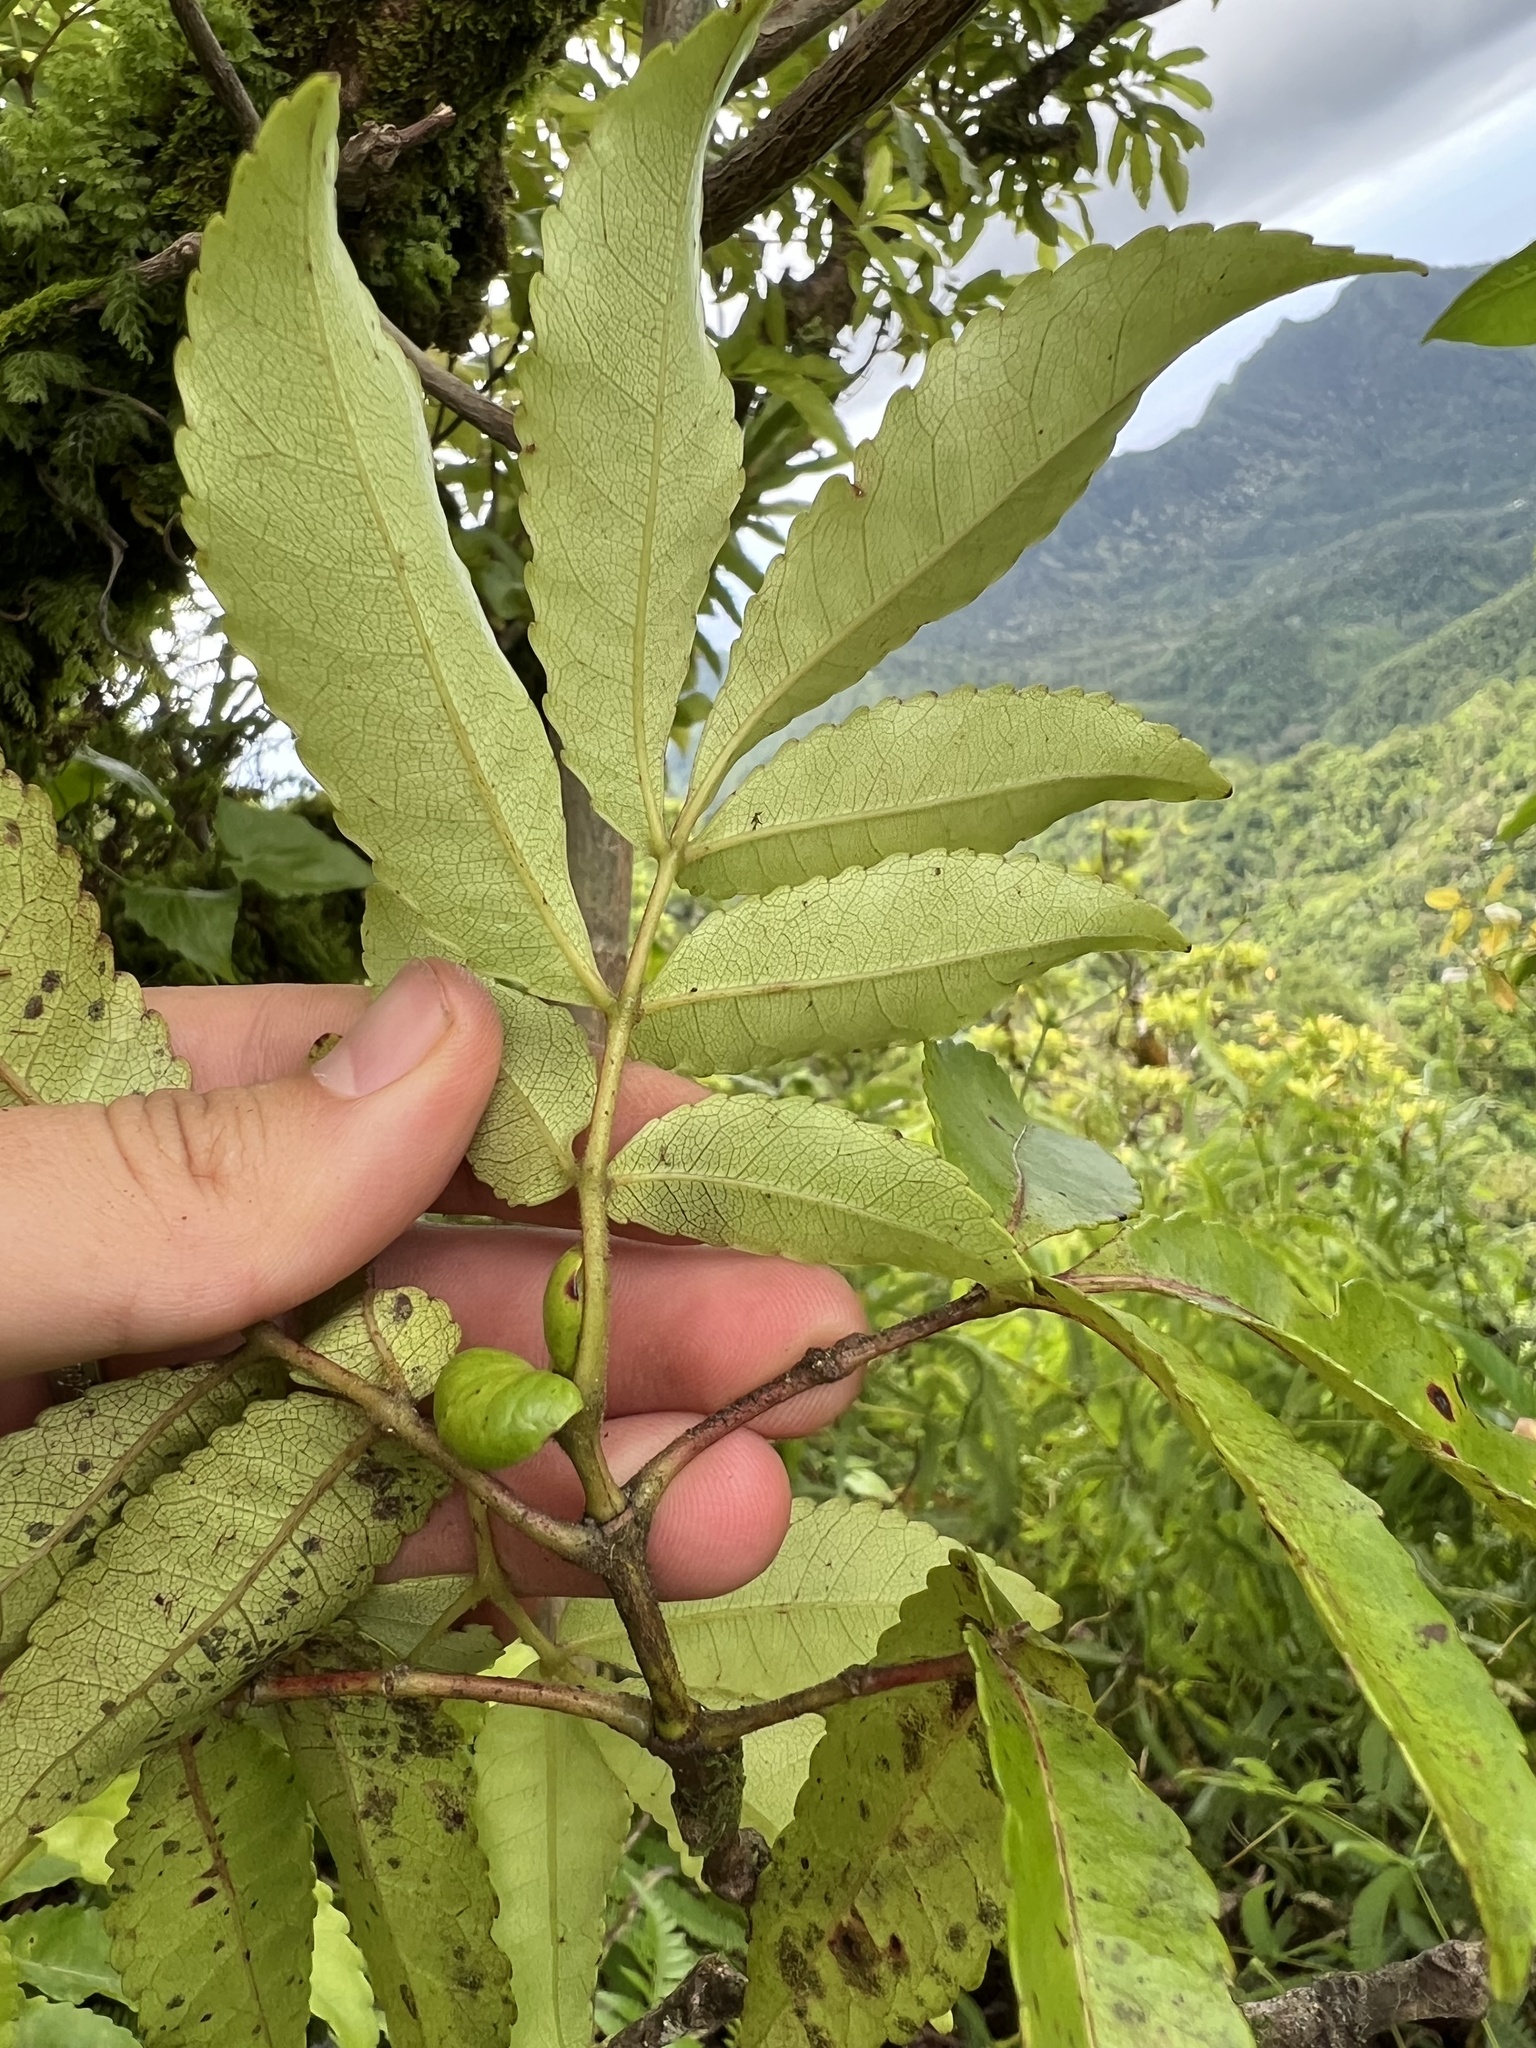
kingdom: Plantae
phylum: Tracheophyta
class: Magnoliopsida
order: Oxalidales
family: Cunoniaceae
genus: Pterophylla
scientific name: Pterophylla samoensis
